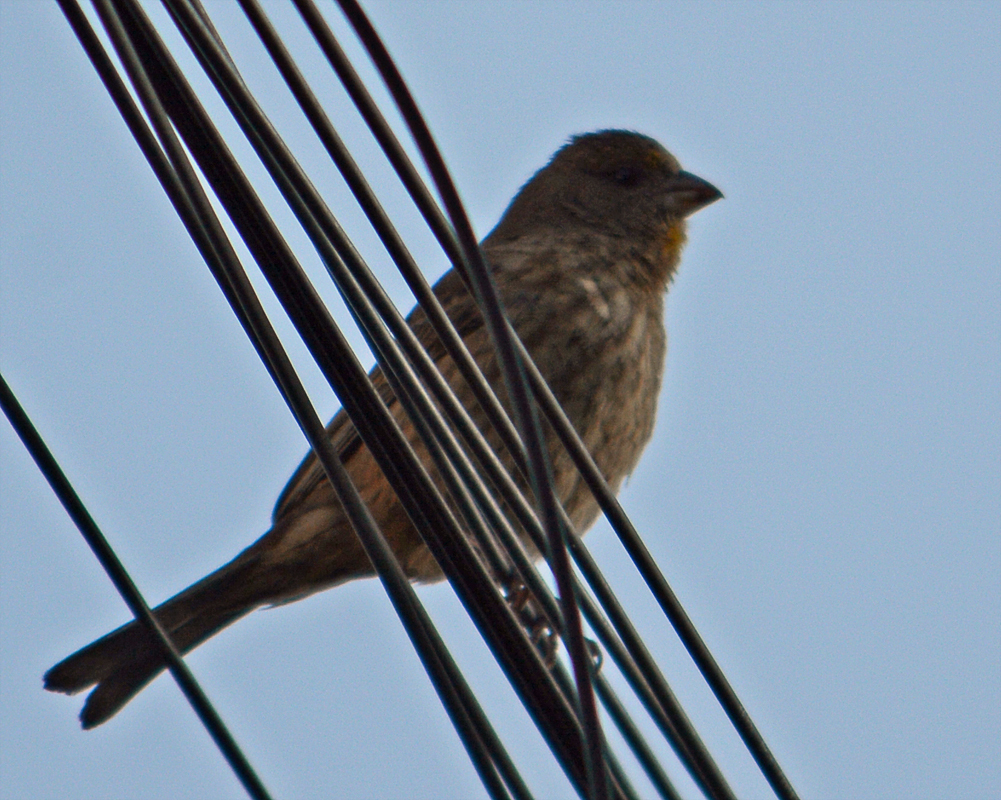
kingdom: Animalia
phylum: Chordata
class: Aves
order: Passeriformes
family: Fringillidae
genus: Haemorhous
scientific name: Haemorhous mexicanus
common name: House finch
